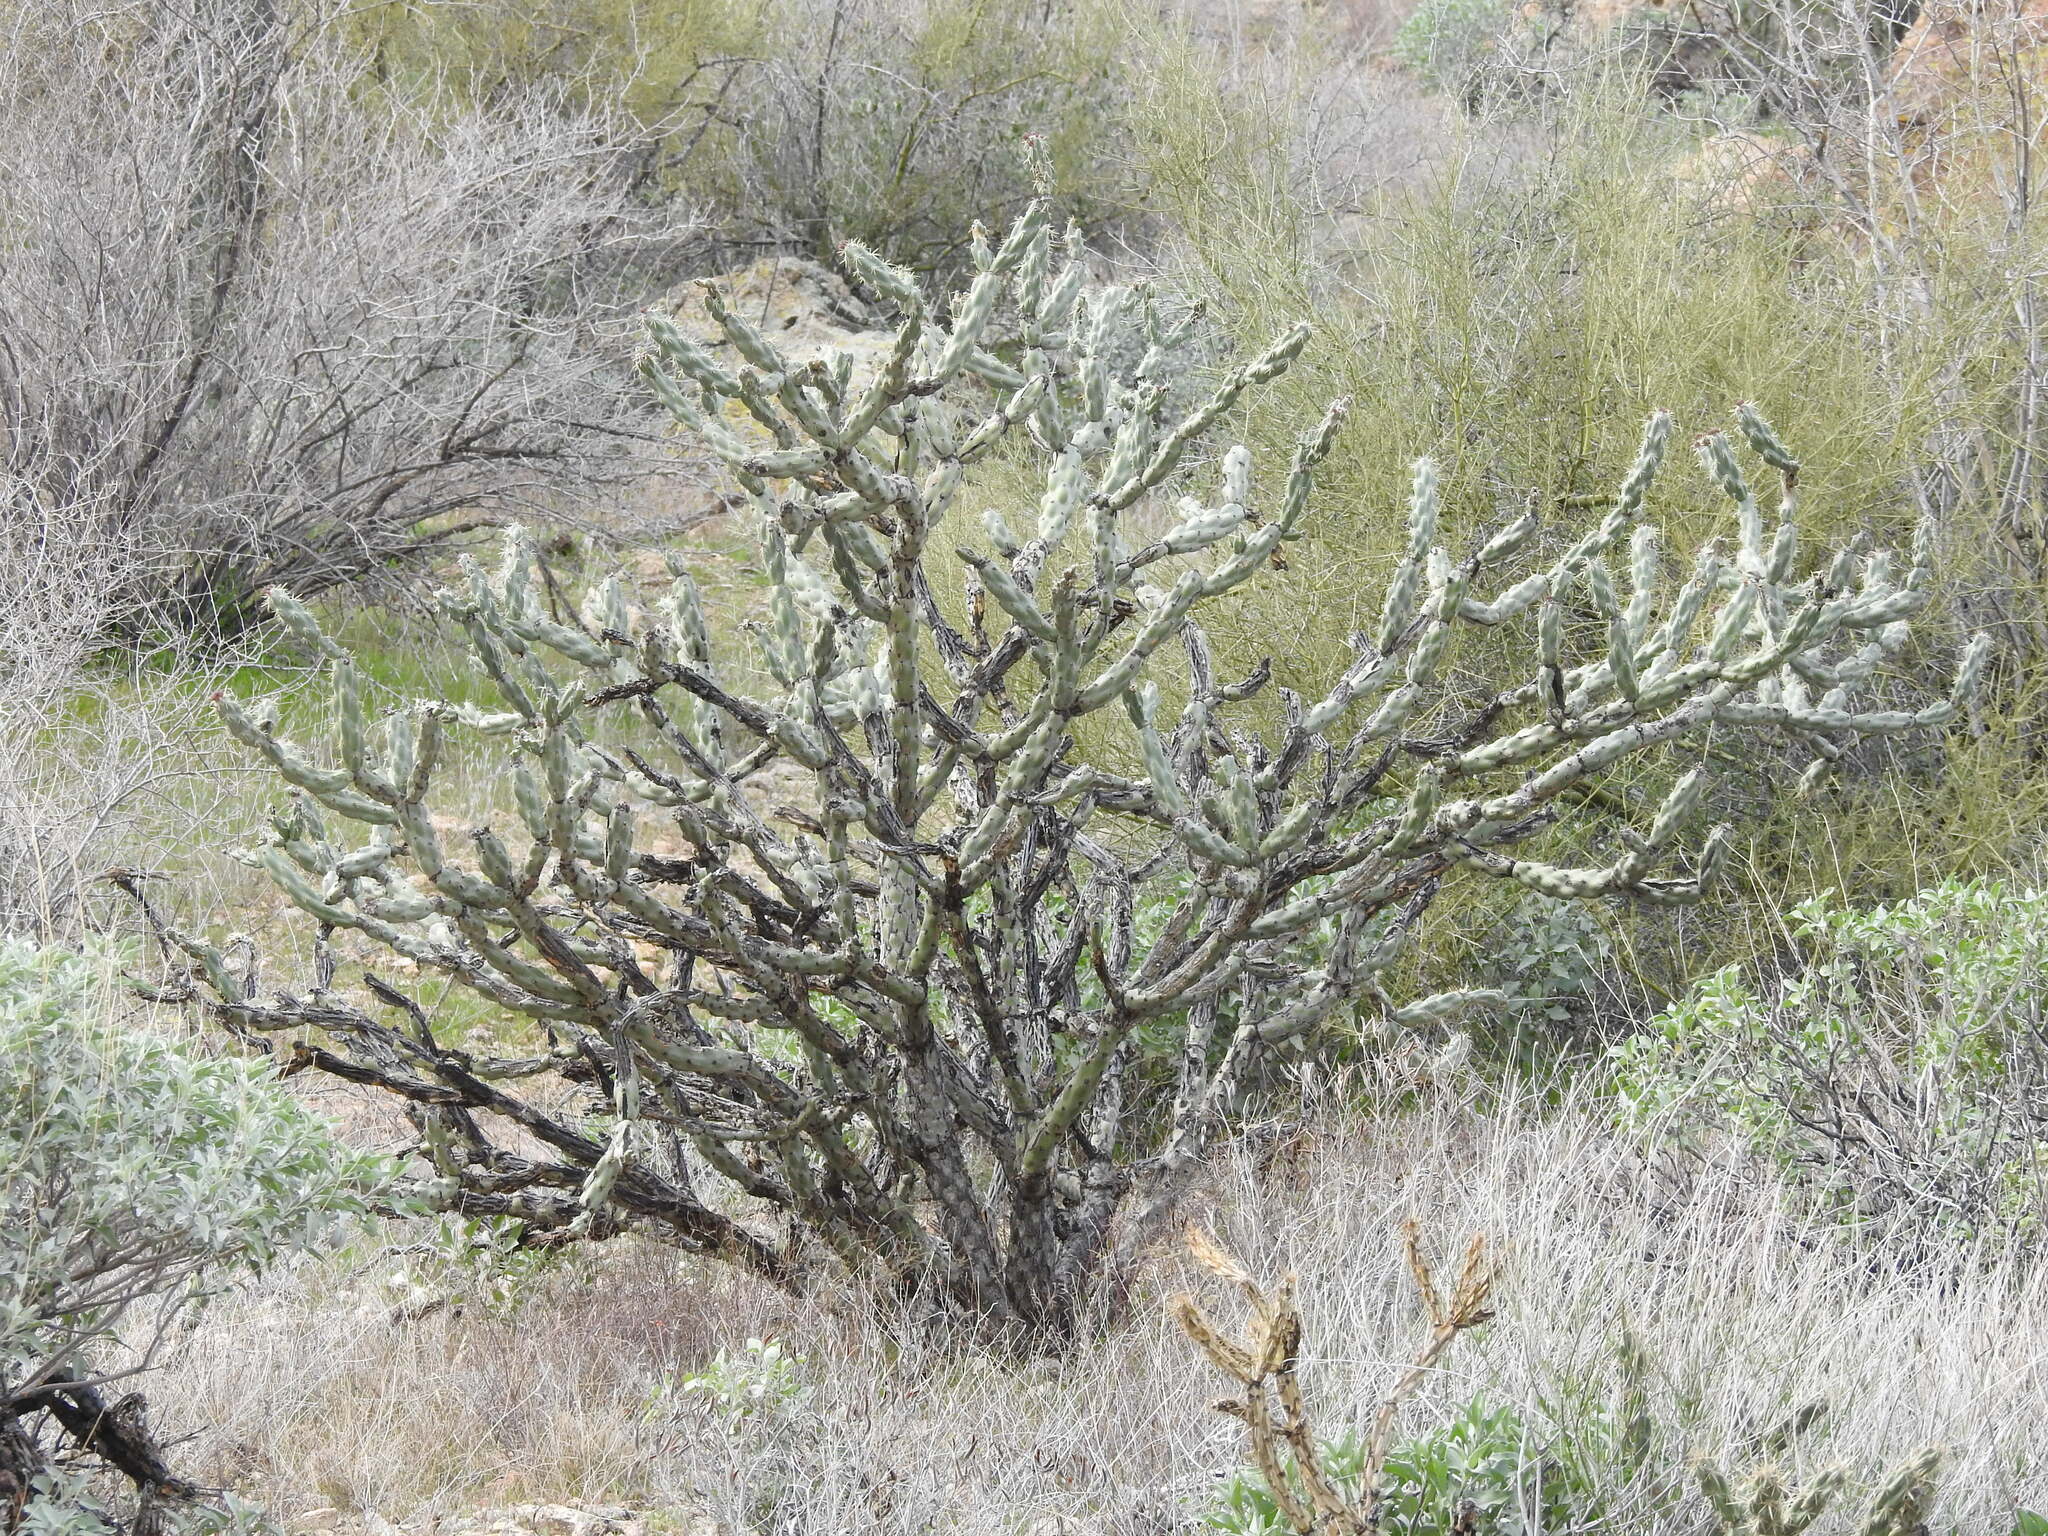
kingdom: Plantae
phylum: Tracheophyta
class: Magnoliopsida
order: Caryophyllales
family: Cactaceae
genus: Cylindropuntia
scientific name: Cylindropuntia acanthocarpa
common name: Buckhorn cholla
